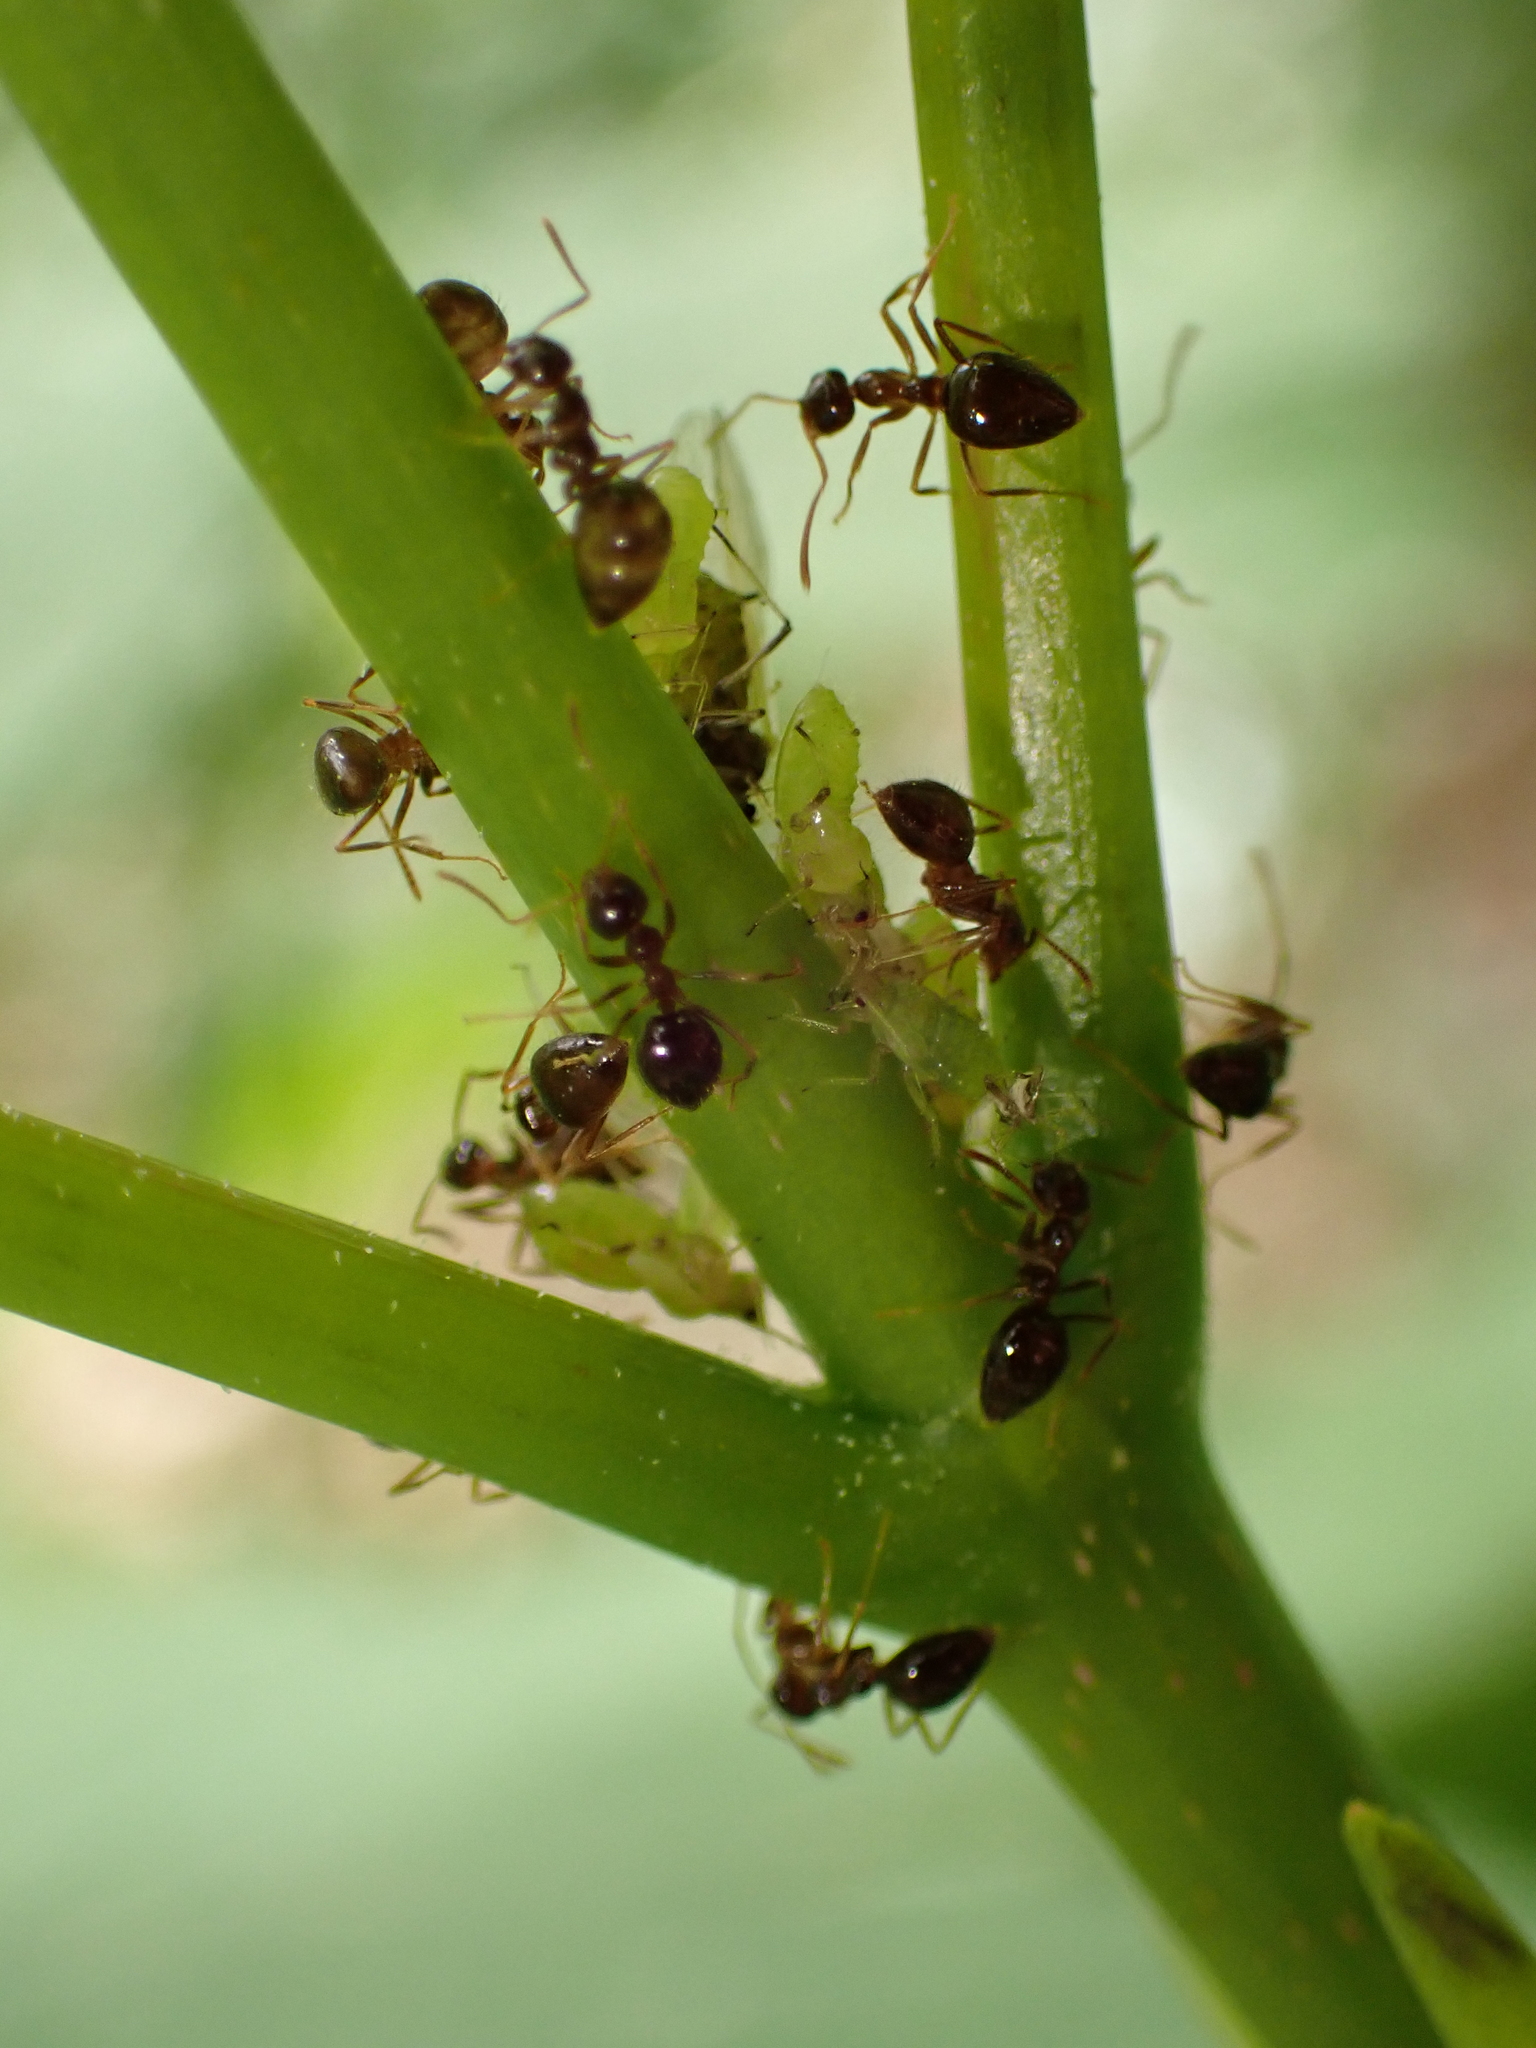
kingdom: Animalia
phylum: Arthropoda
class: Insecta
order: Hymenoptera
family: Formicidae
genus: Prenolepis
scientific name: Prenolepis nitens
